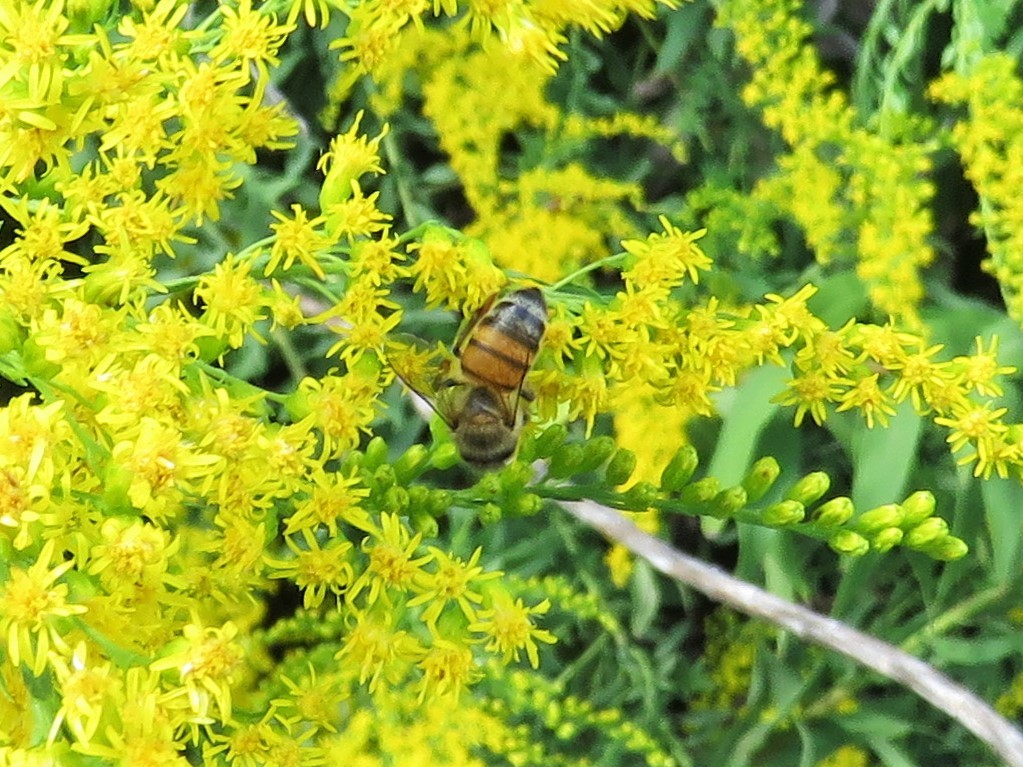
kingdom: Animalia
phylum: Arthropoda
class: Insecta
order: Hymenoptera
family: Apidae
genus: Apis
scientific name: Apis mellifera
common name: Honey bee
